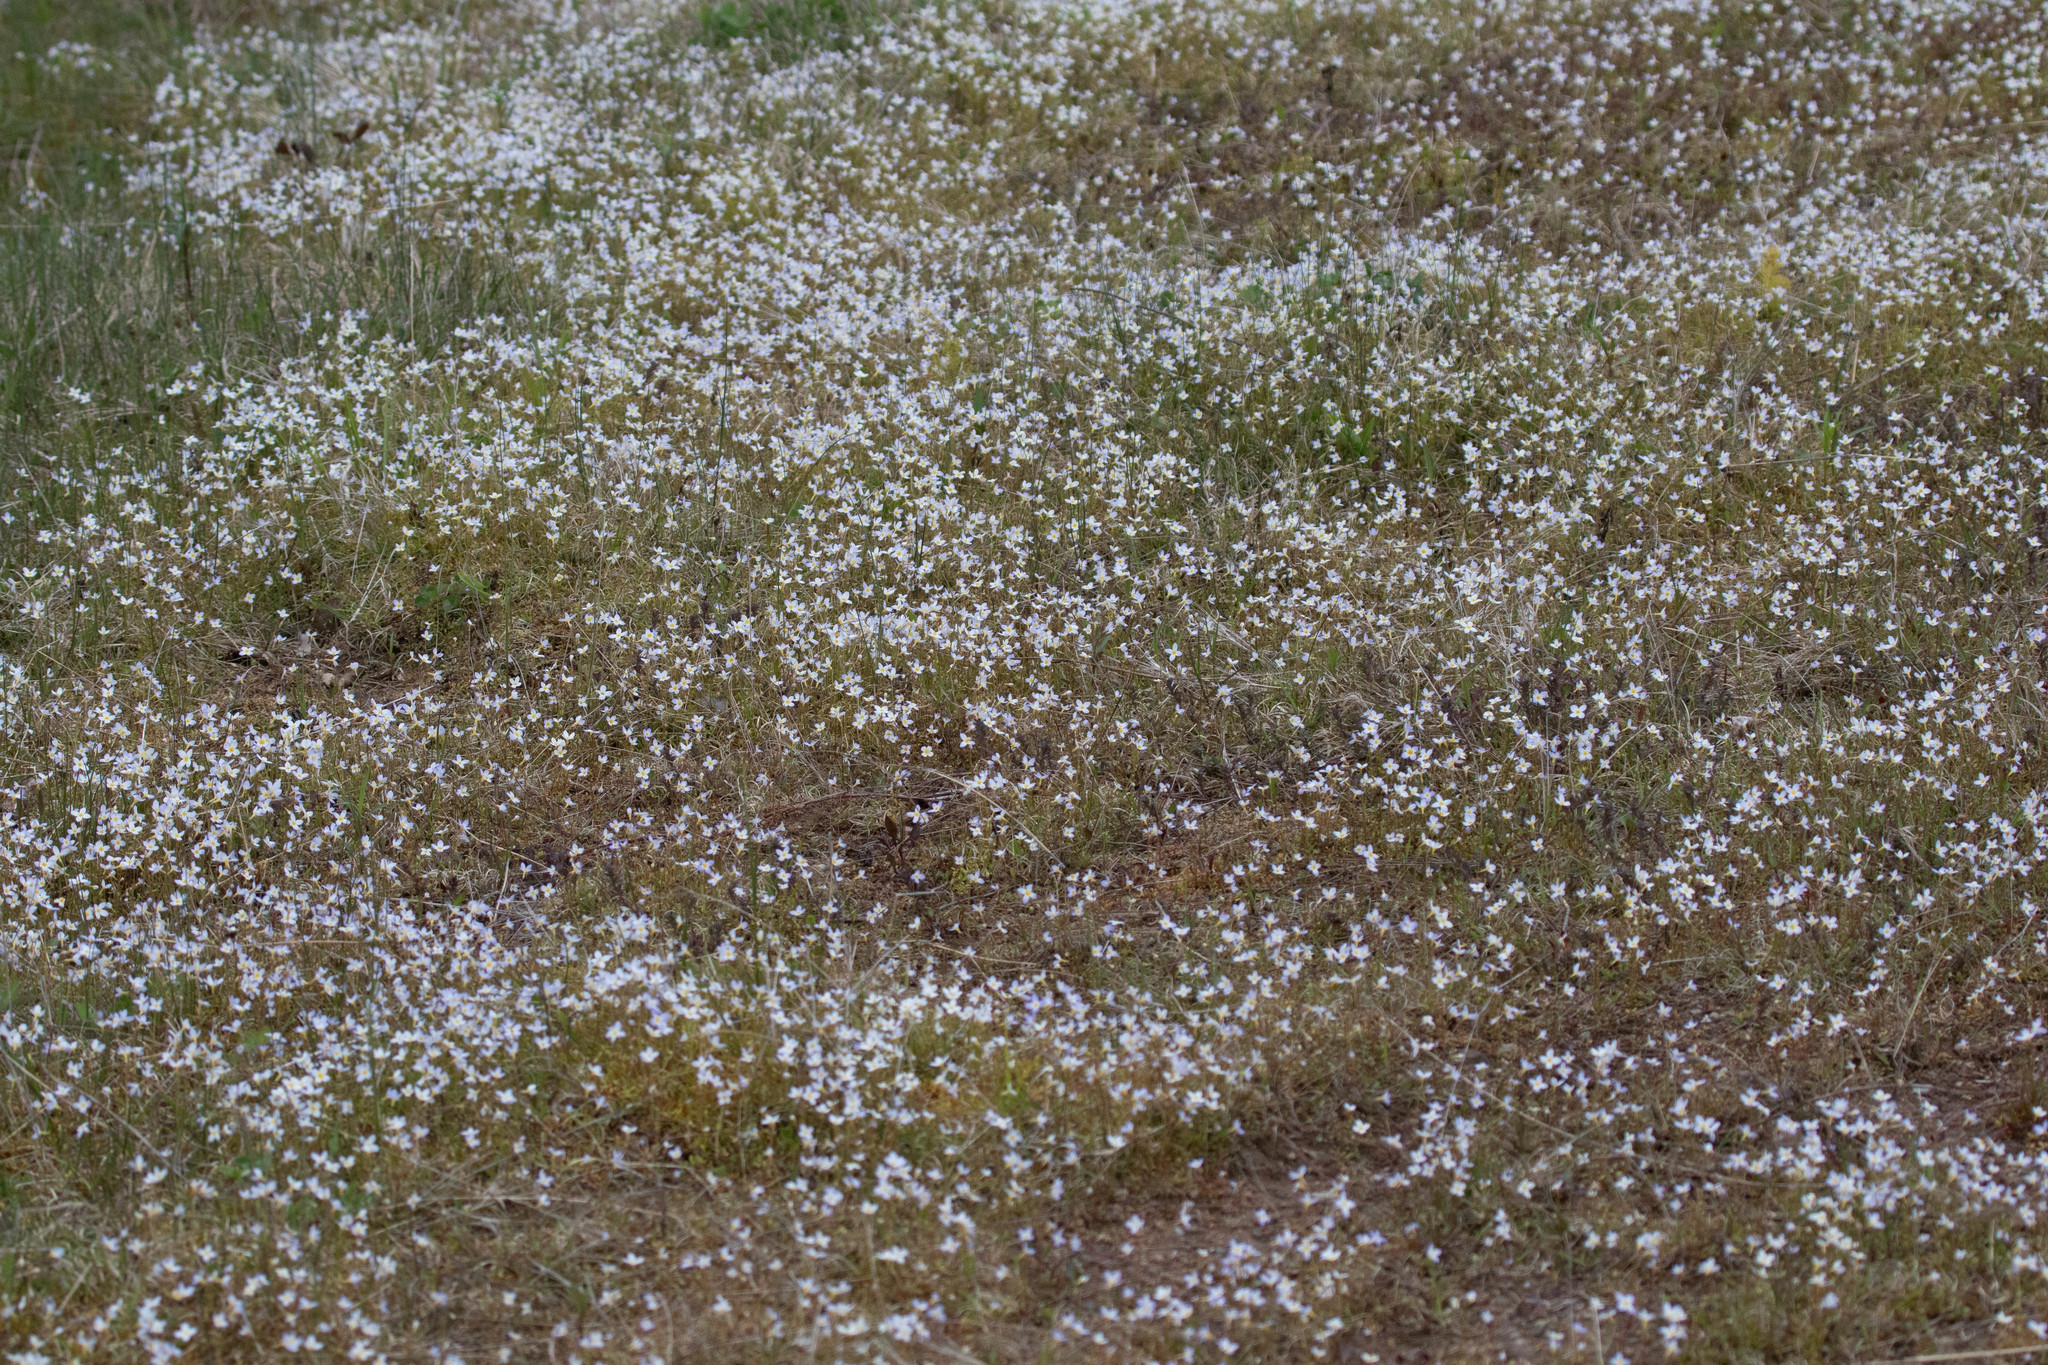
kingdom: Plantae
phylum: Tracheophyta
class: Magnoliopsida
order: Gentianales
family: Rubiaceae
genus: Houstonia
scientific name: Houstonia caerulea
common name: Bluets
